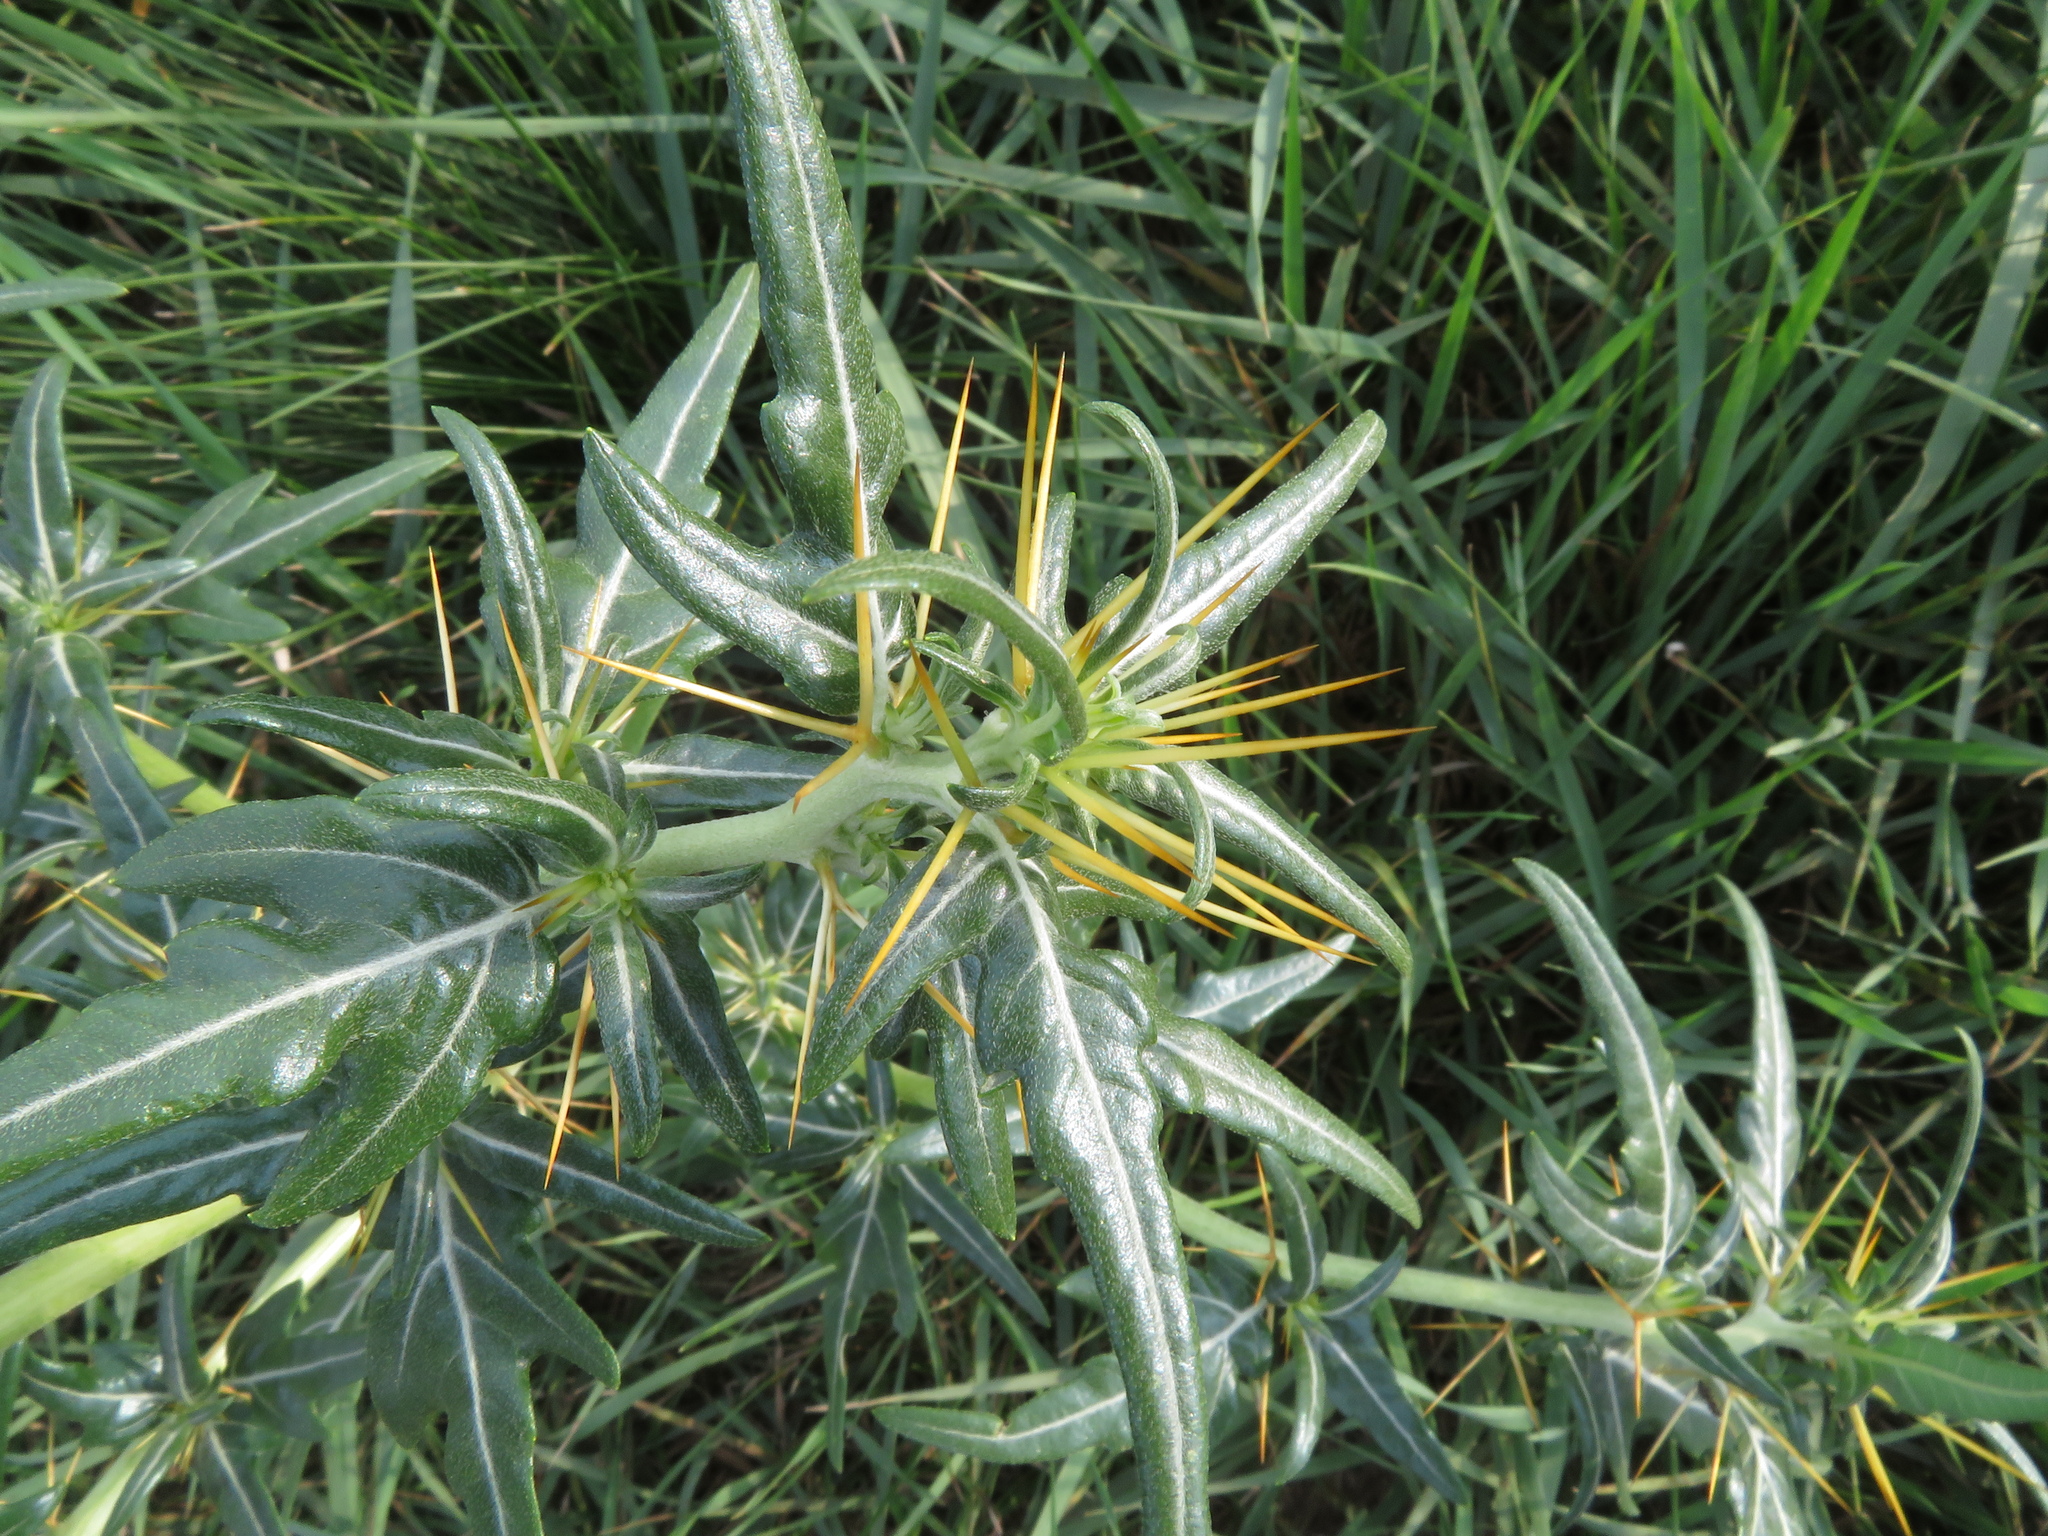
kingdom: Plantae
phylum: Tracheophyta
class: Magnoliopsida
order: Asterales
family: Asteraceae
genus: Xanthium
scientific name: Xanthium spinosum
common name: Spiny cocklebur
